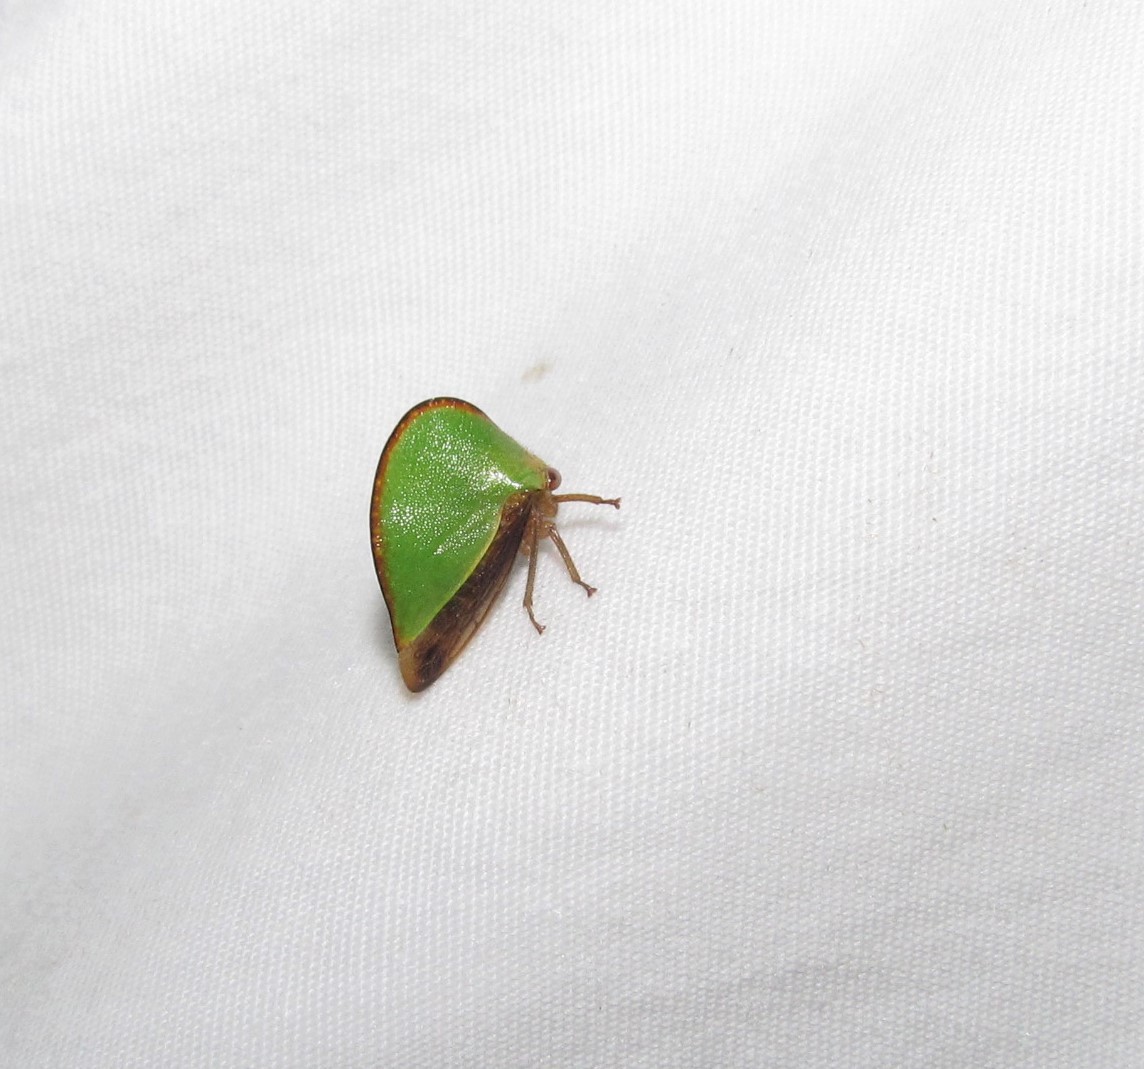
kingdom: Animalia
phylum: Arthropoda
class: Insecta
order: Hemiptera
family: Membracidae
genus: Archasia
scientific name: Archasia belfragei
